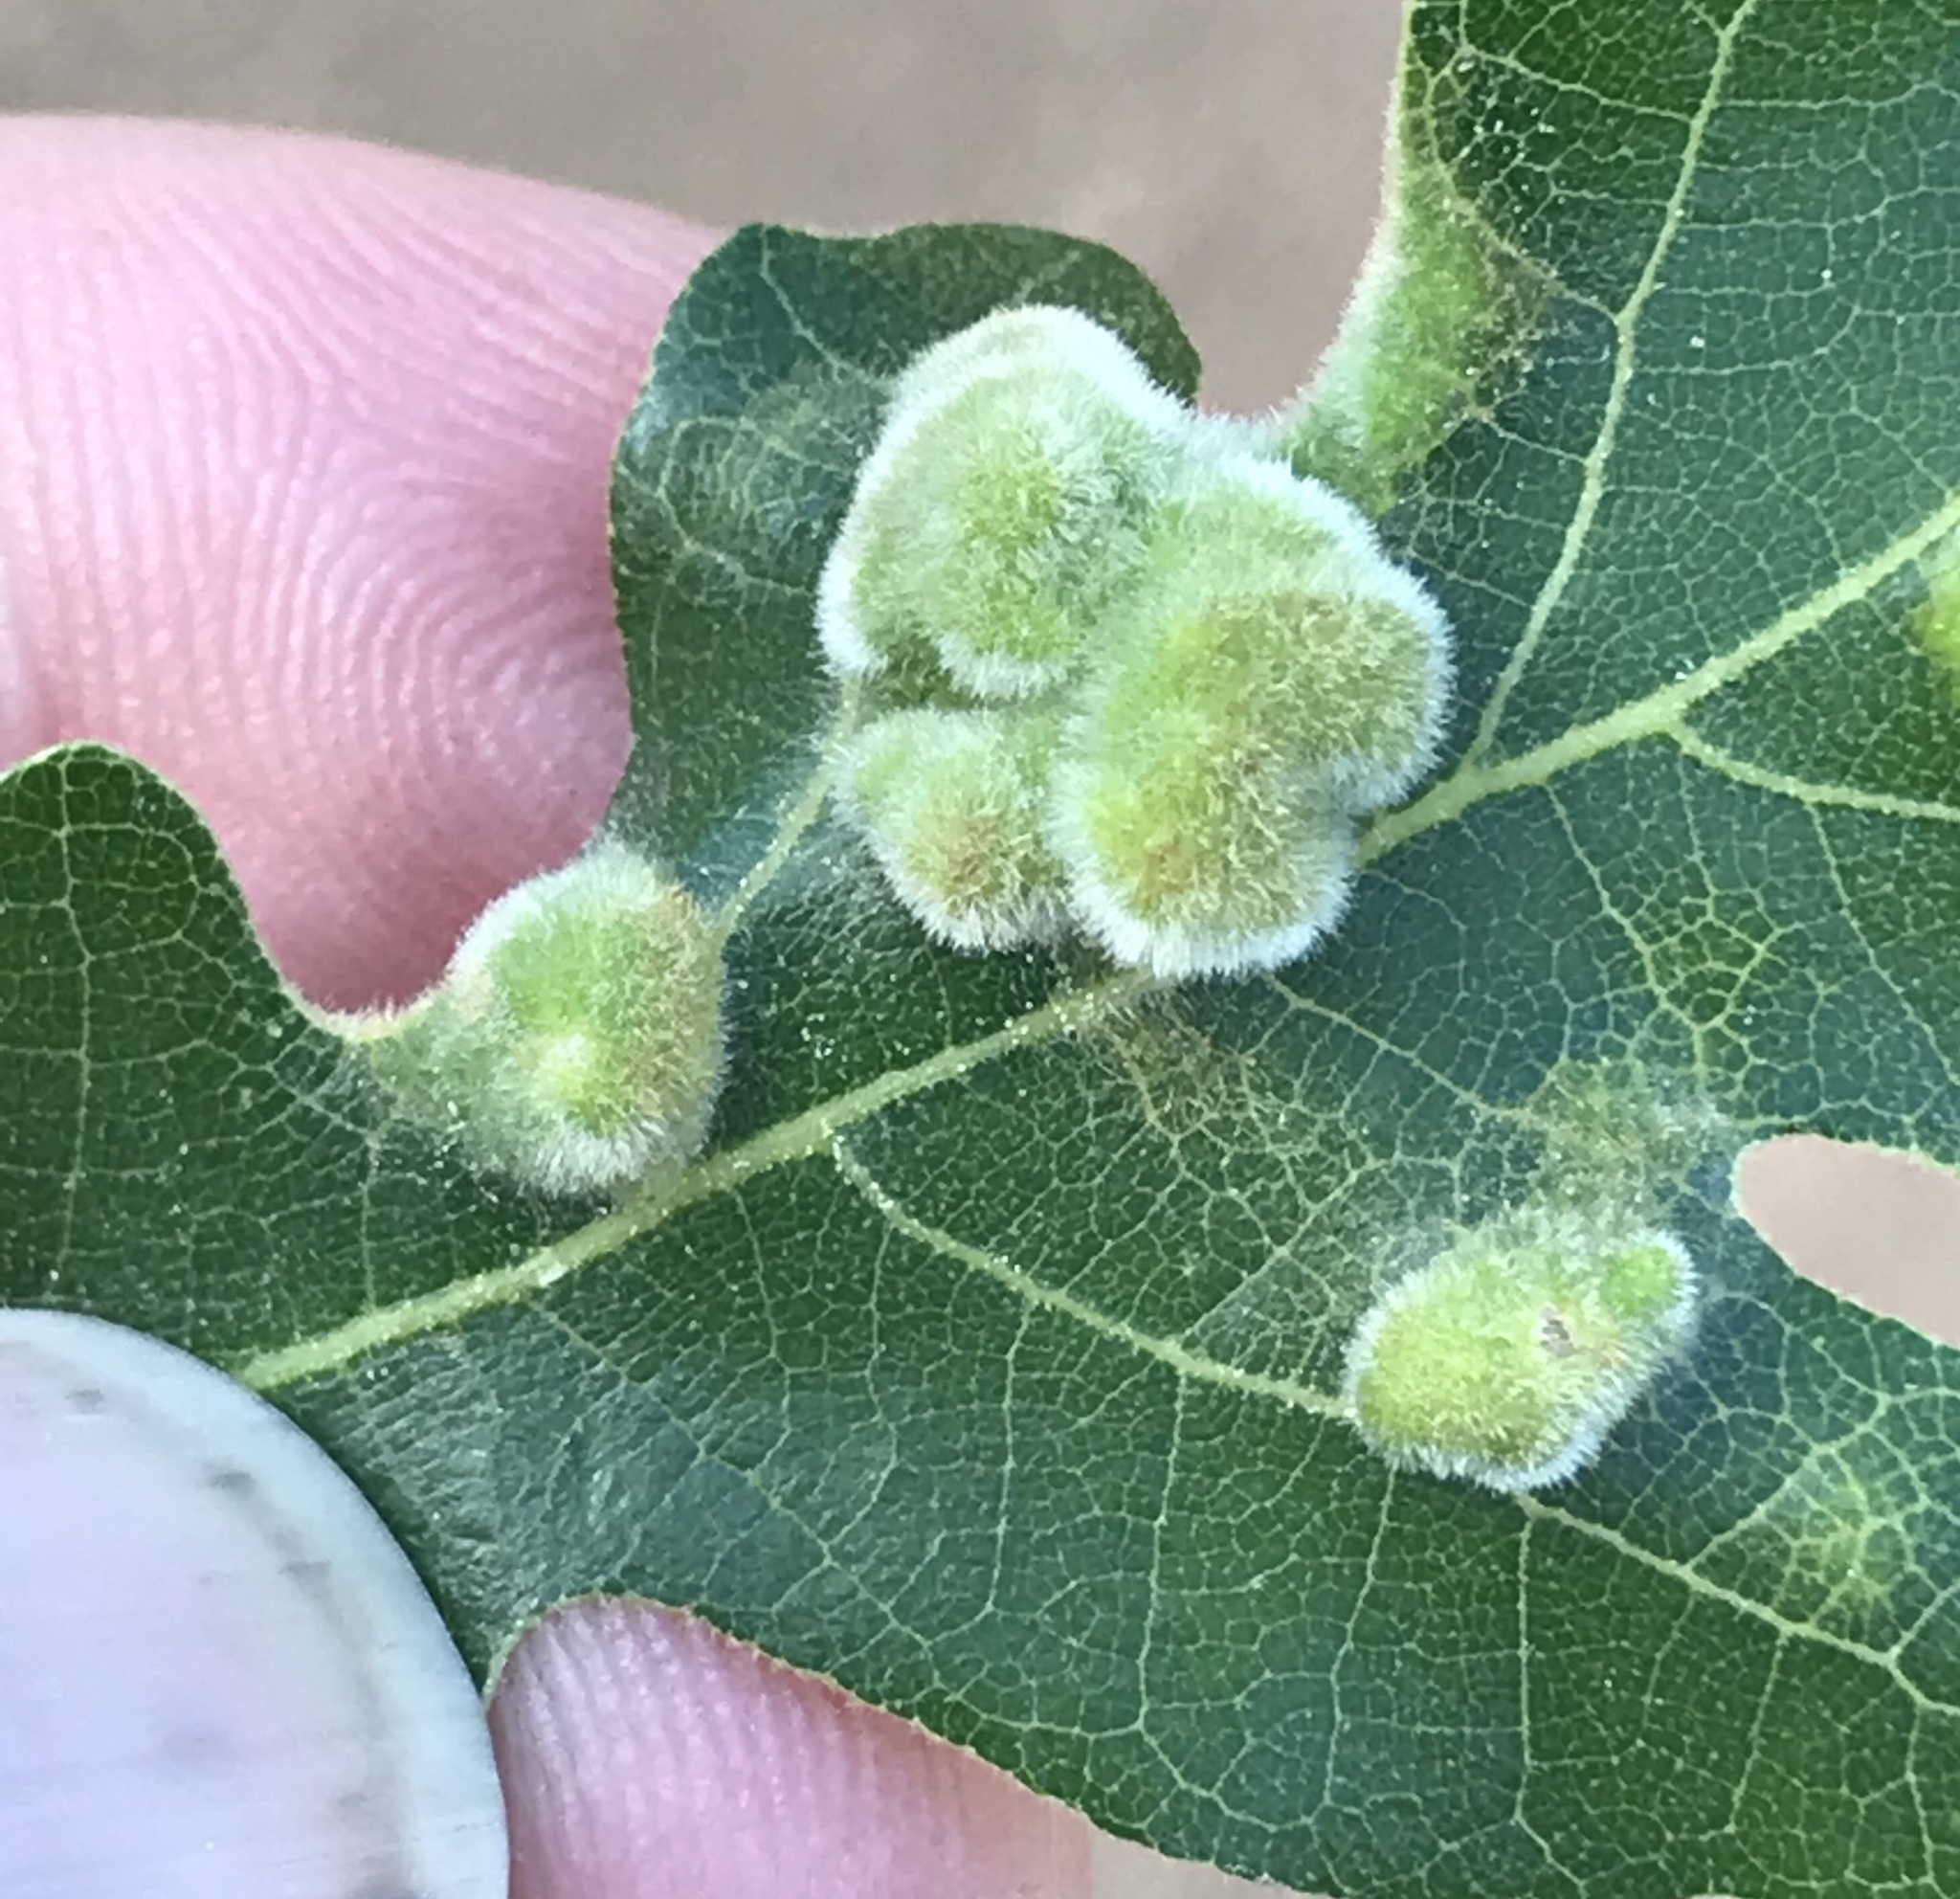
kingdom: Animalia
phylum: Arthropoda
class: Arachnida
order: Trombidiformes
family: Eriophyidae
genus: Aceria
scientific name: Aceria
